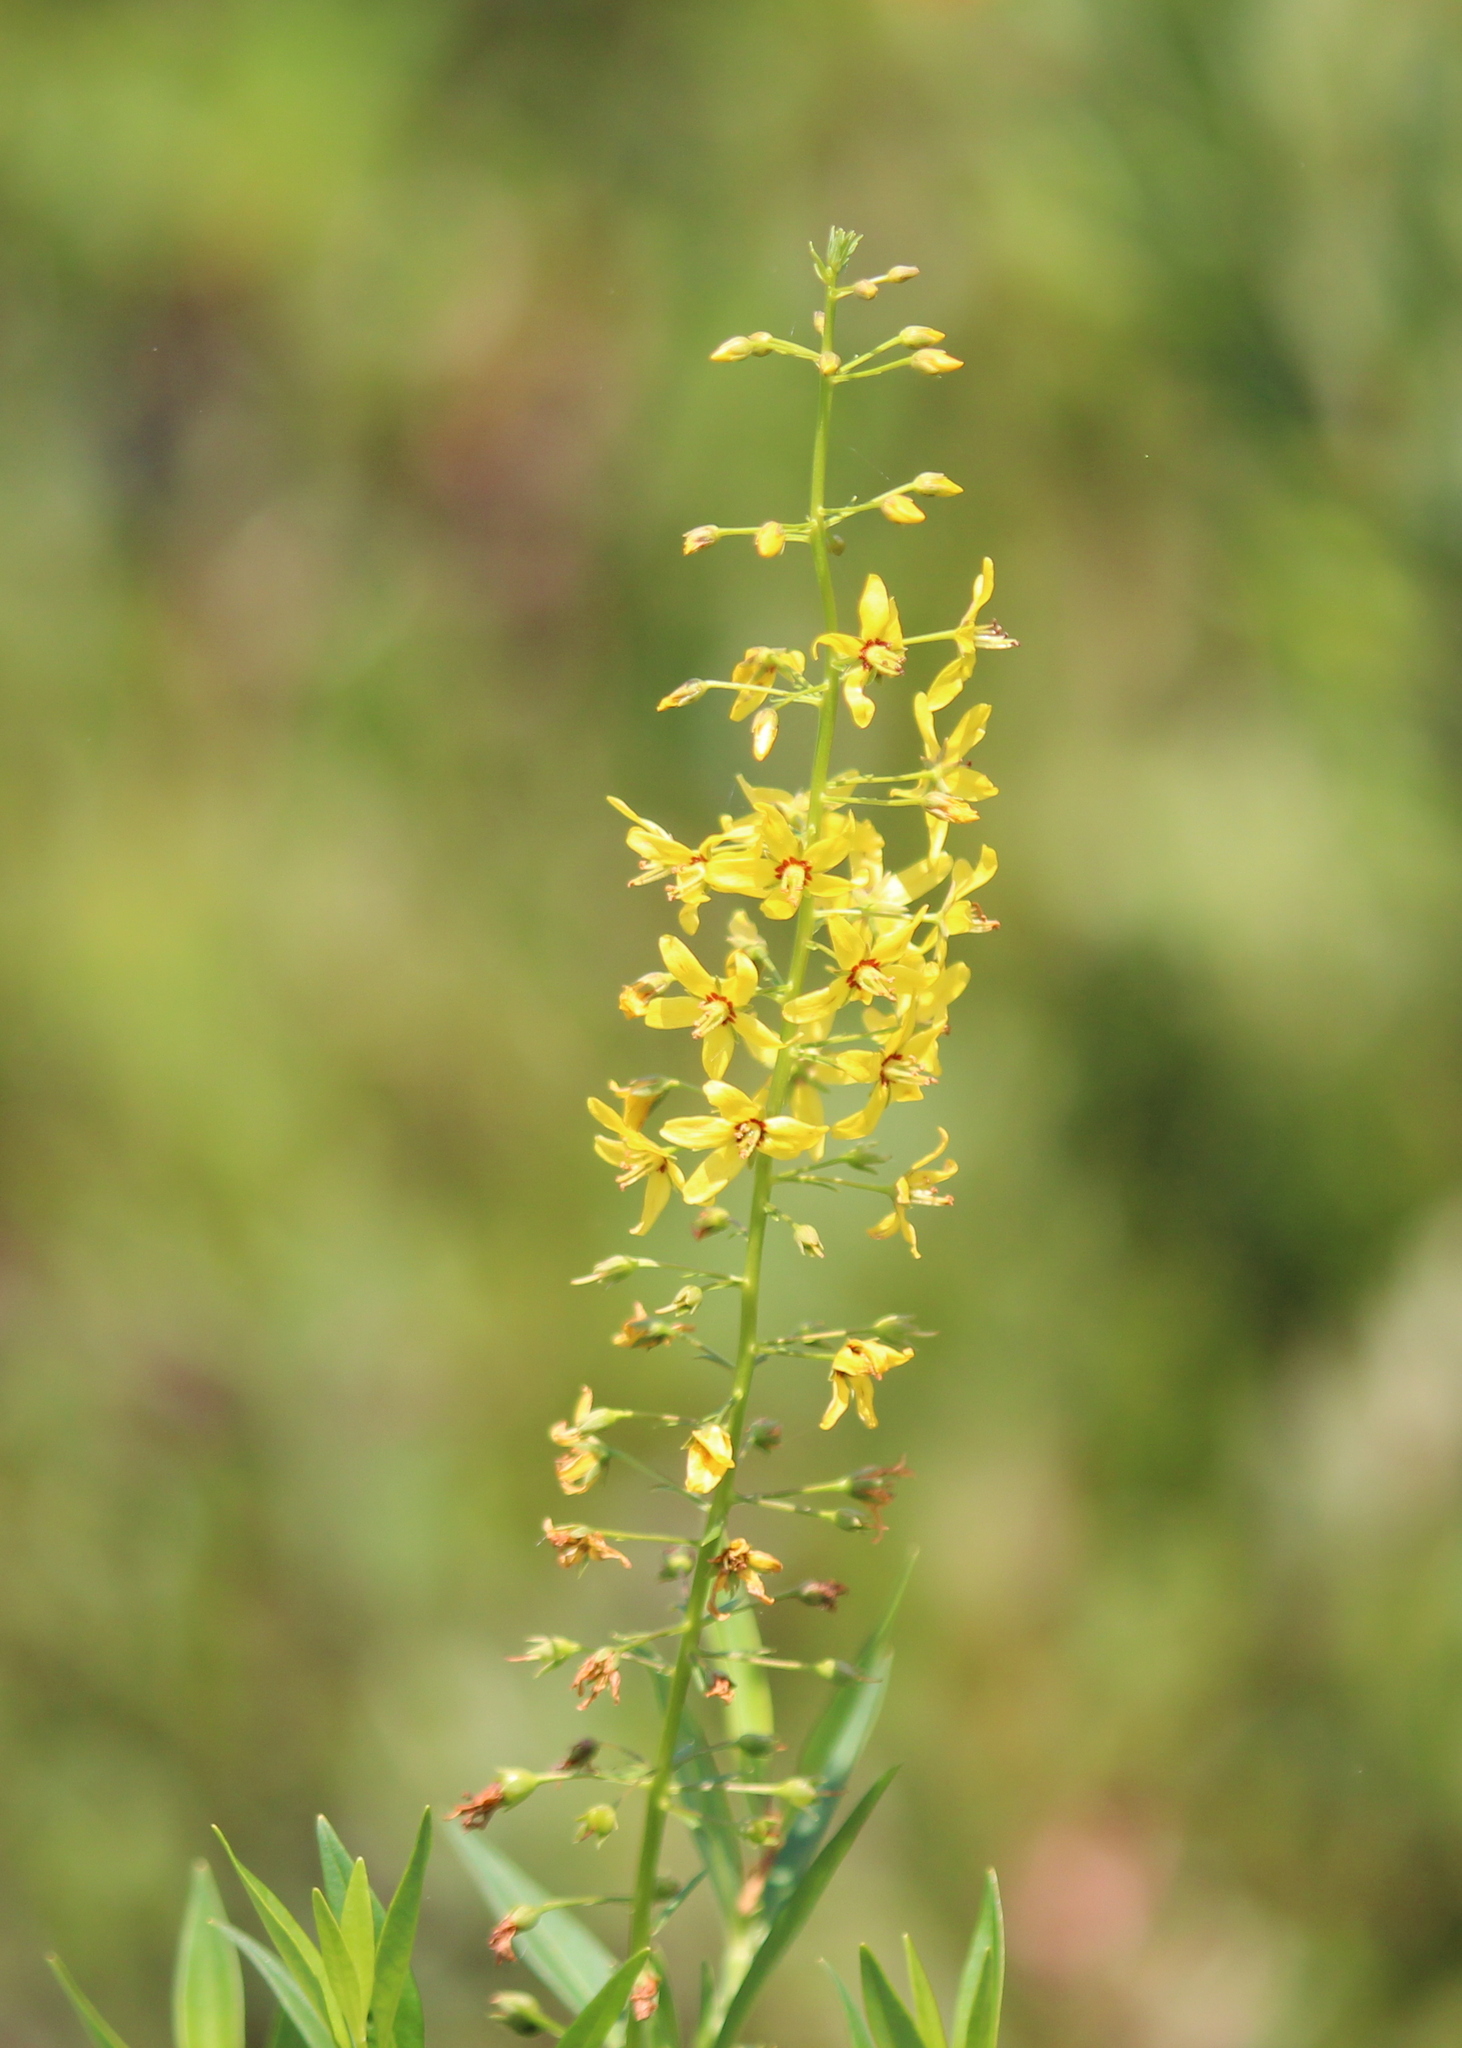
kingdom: Plantae
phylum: Tracheophyta
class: Magnoliopsida
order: Ericales
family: Primulaceae
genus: Lysimachia
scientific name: Lysimachia terrestris
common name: Lake loosestrife
